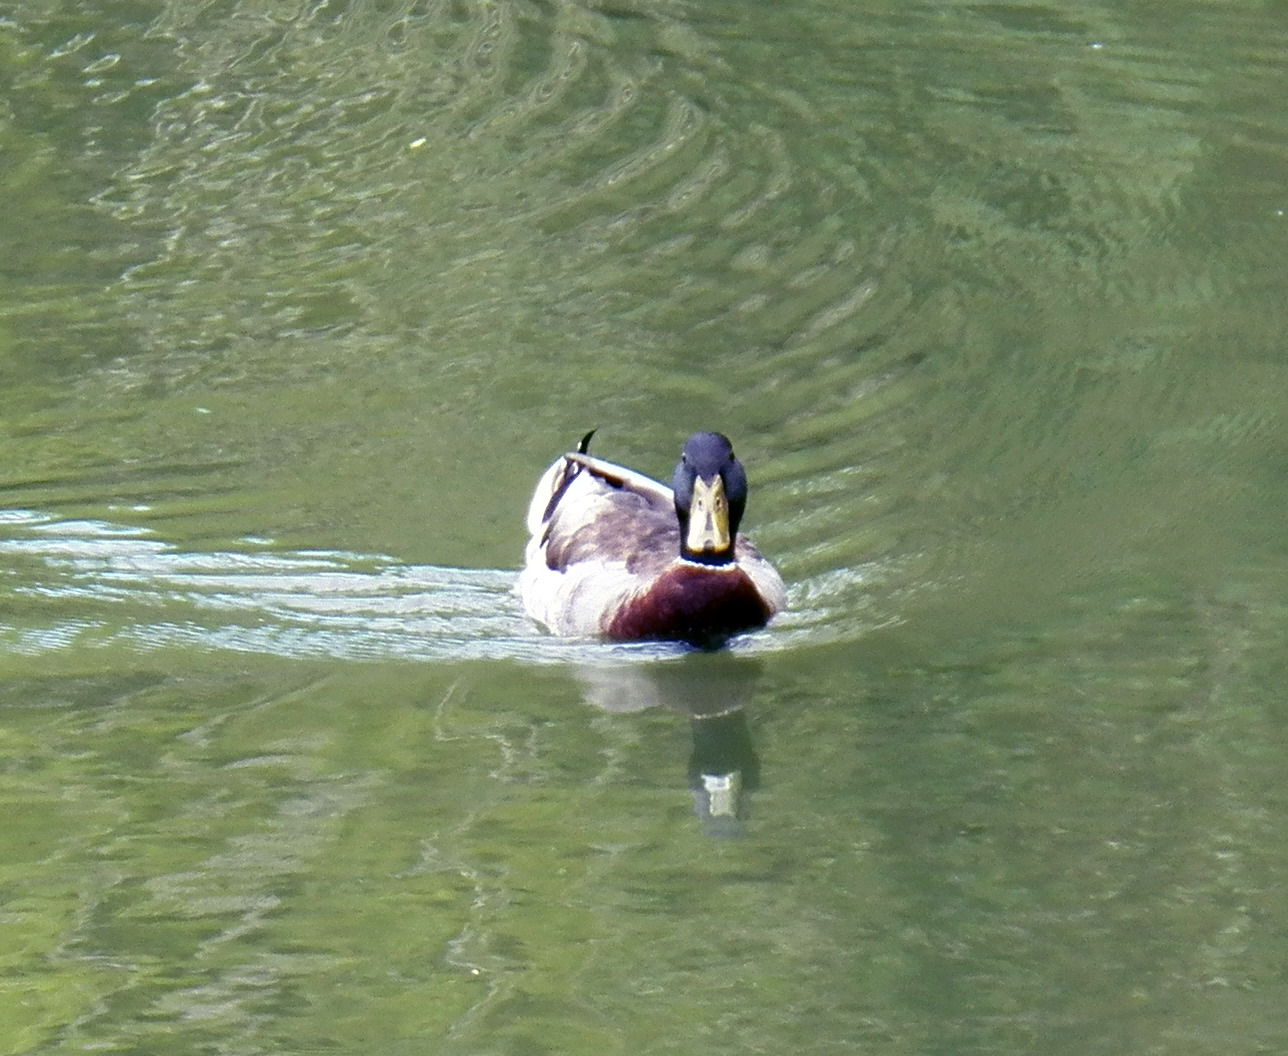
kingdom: Animalia
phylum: Chordata
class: Aves
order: Anseriformes
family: Anatidae
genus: Anas
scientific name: Anas platyrhynchos
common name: Mallard
